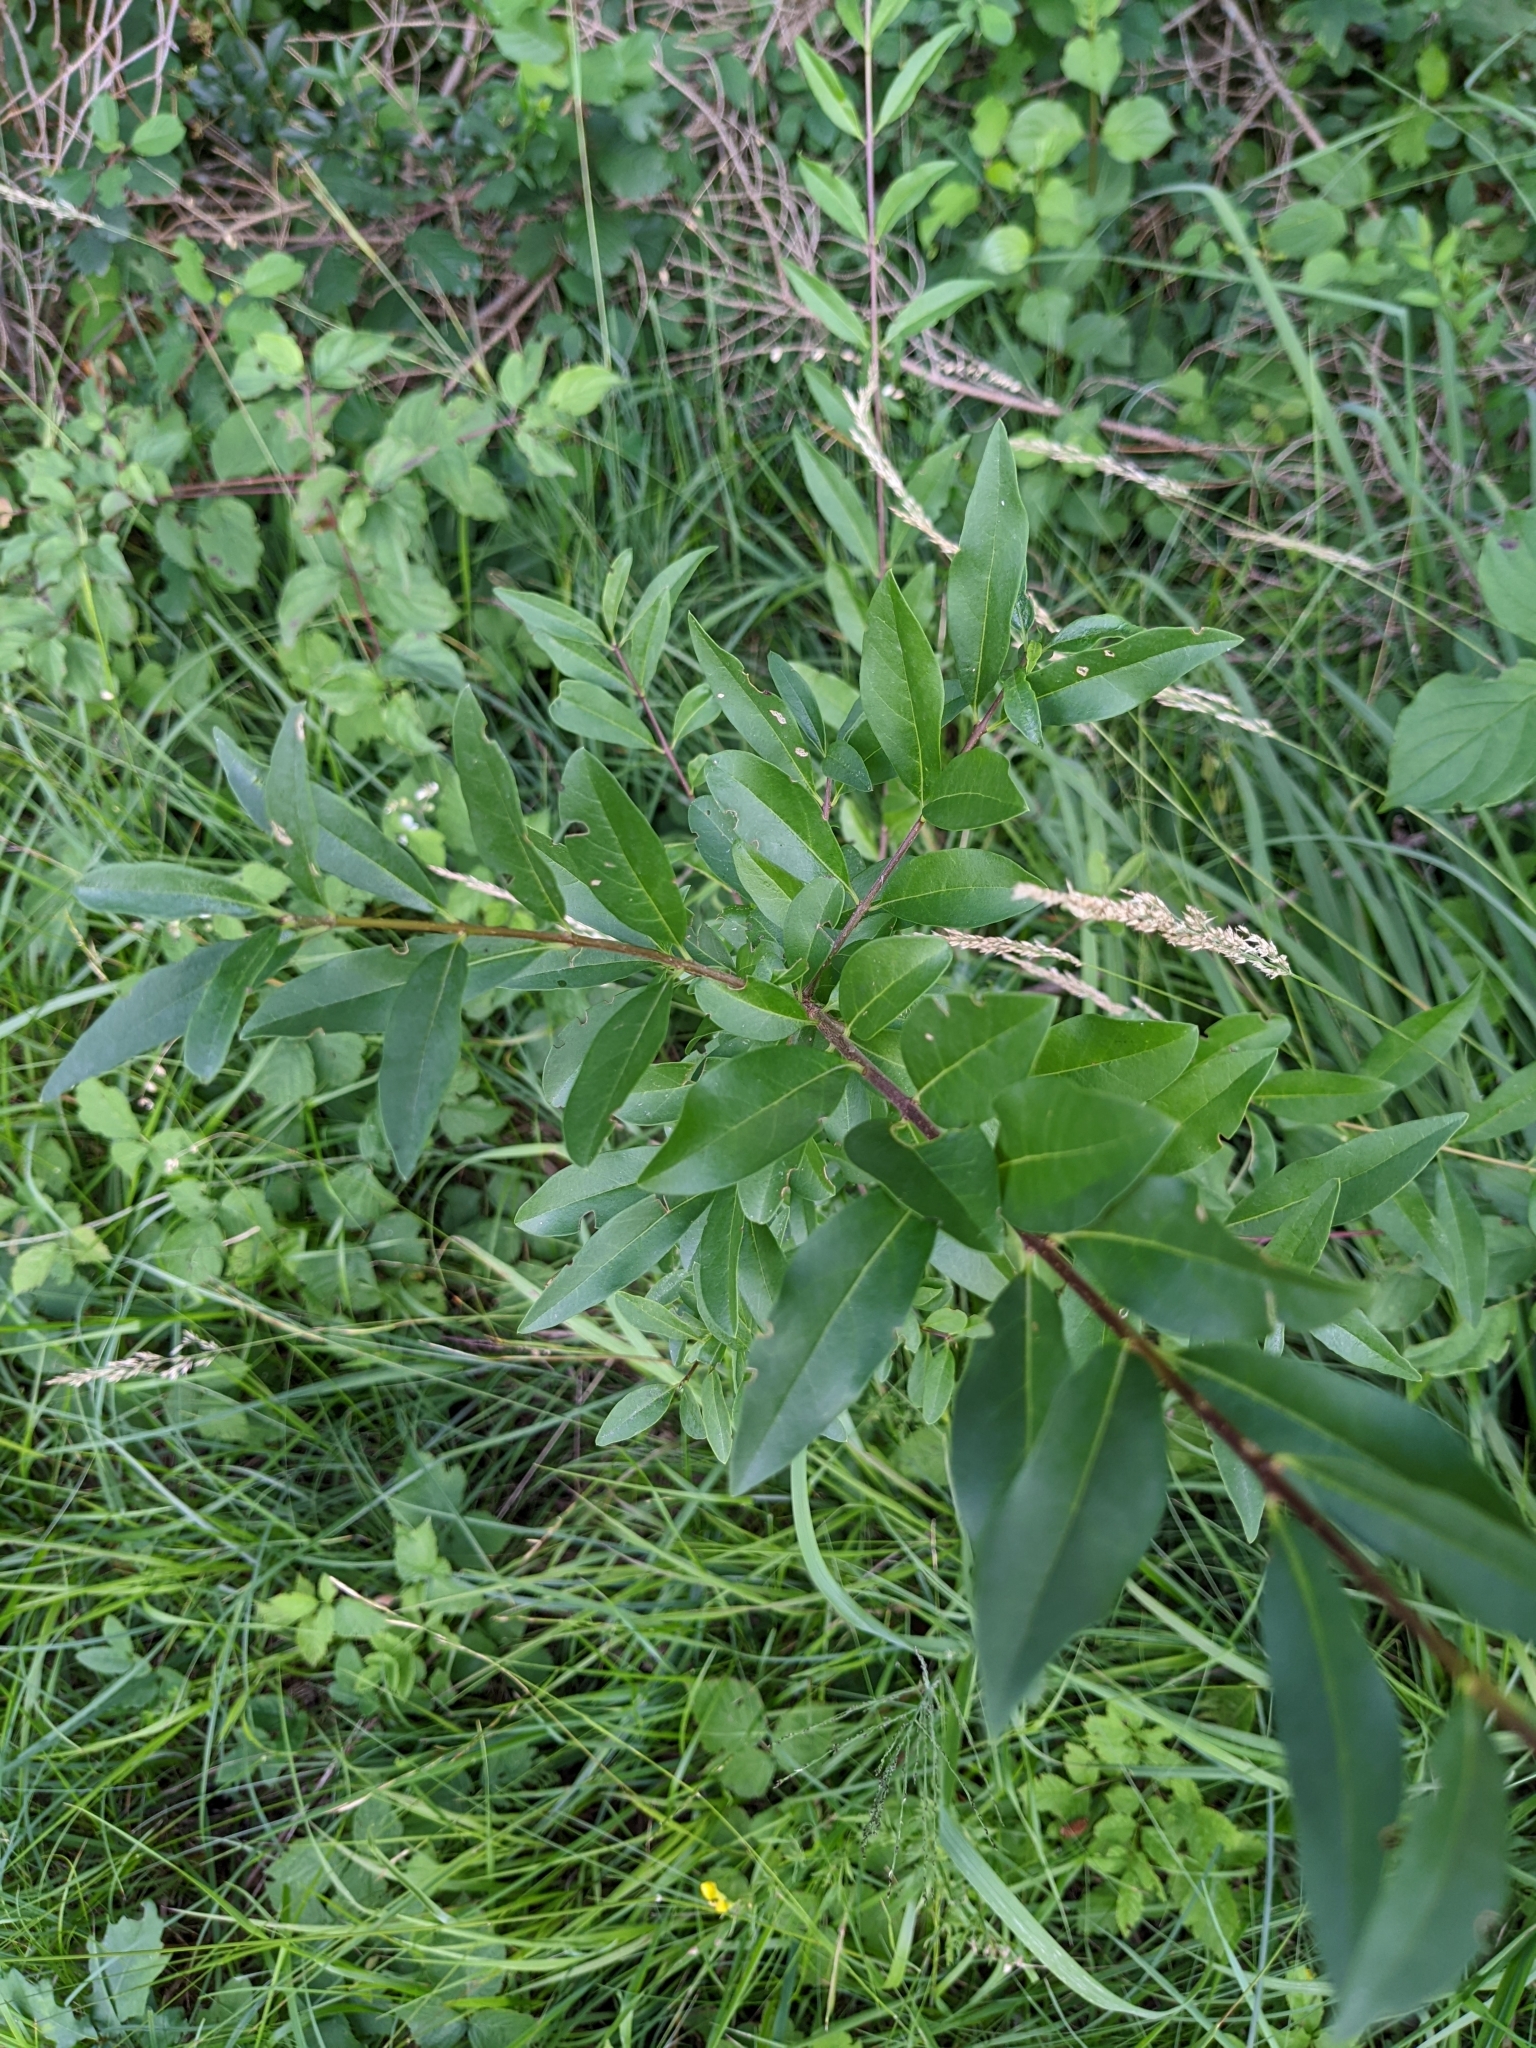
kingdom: Plantae
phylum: Tracheophyta
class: Magnoliopsida
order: Lamiales
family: Oleaceae
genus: Ligustrum
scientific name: Ligustrum vulgare
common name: Wild privet
